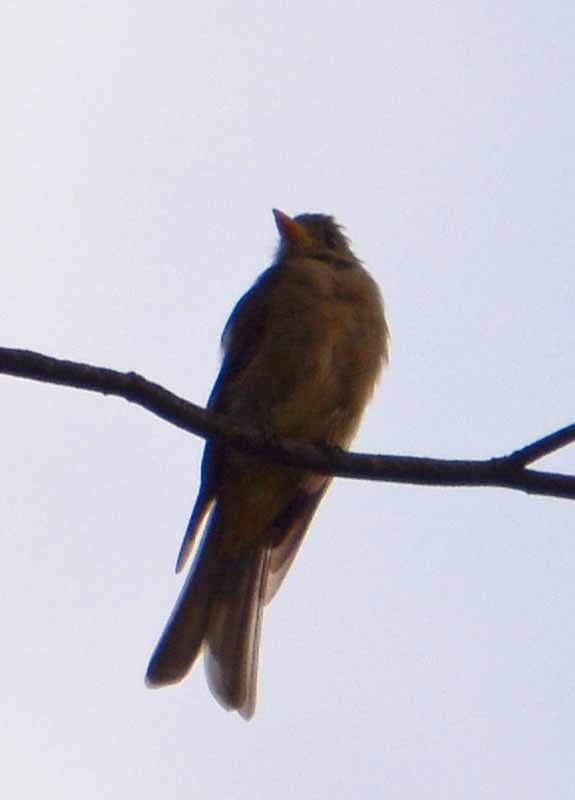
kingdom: Animalia
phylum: Chordata
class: Aves
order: Passeriformes
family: Tyrannidae
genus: Contopus
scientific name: Contopus pertinax
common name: Greater pewee
